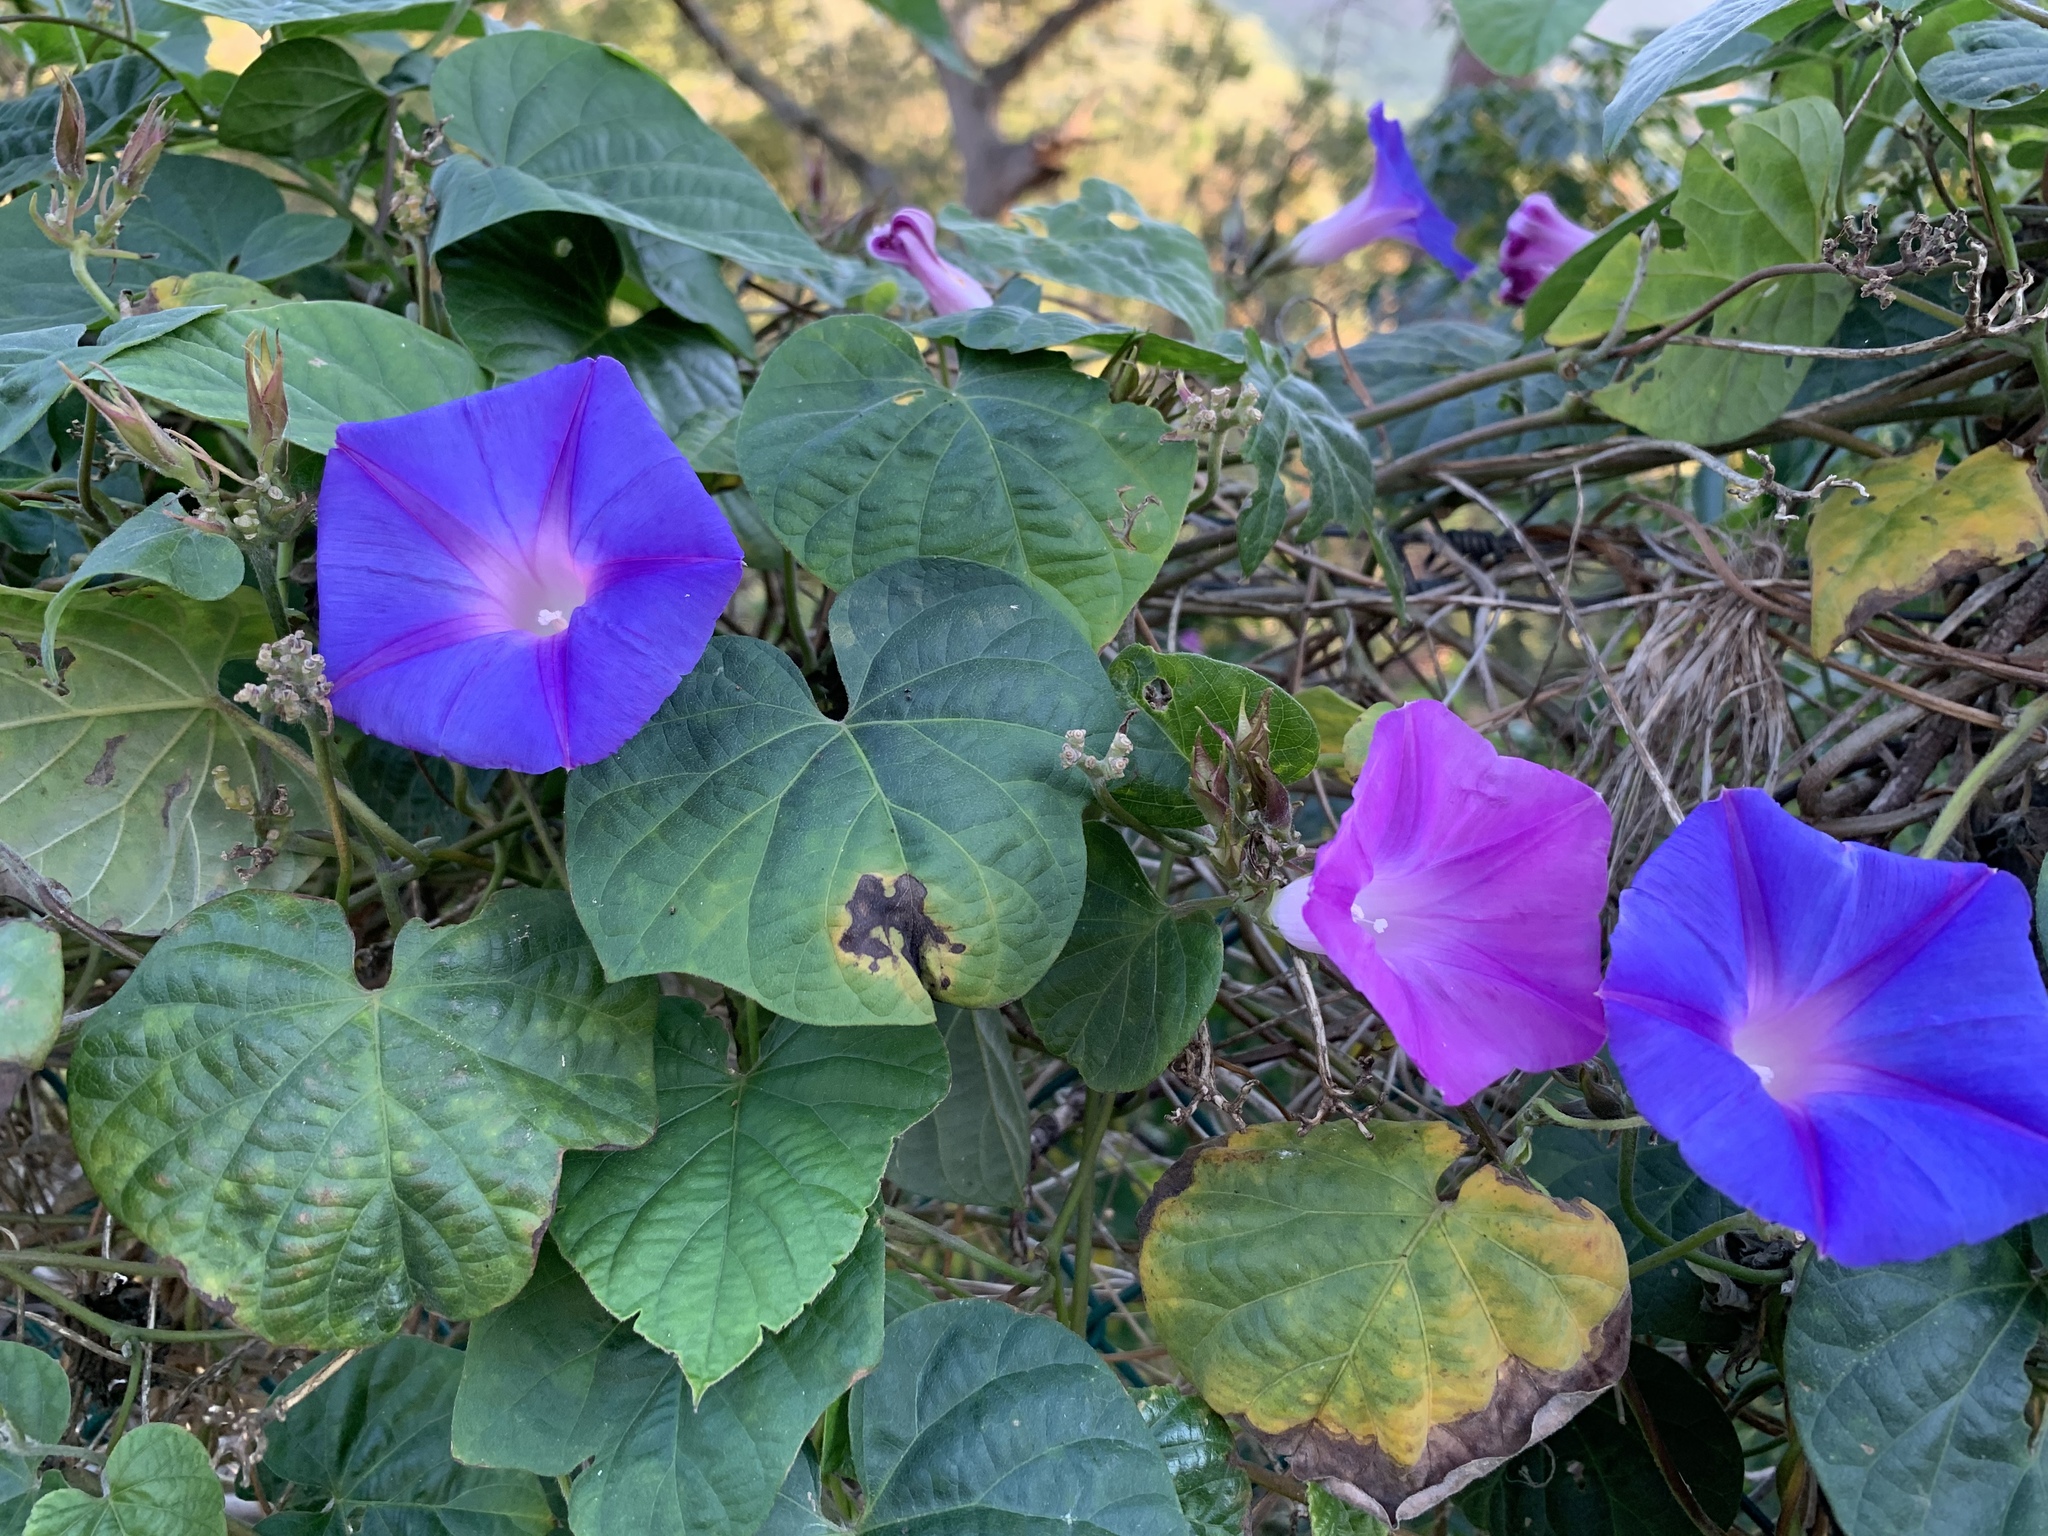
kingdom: Plantae
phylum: Tracheophyta
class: Magnoliopsida
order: Solanales
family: Convolvulaceae
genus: Ipomoea
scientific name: Ipomoea indica
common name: Blue dawnflower
